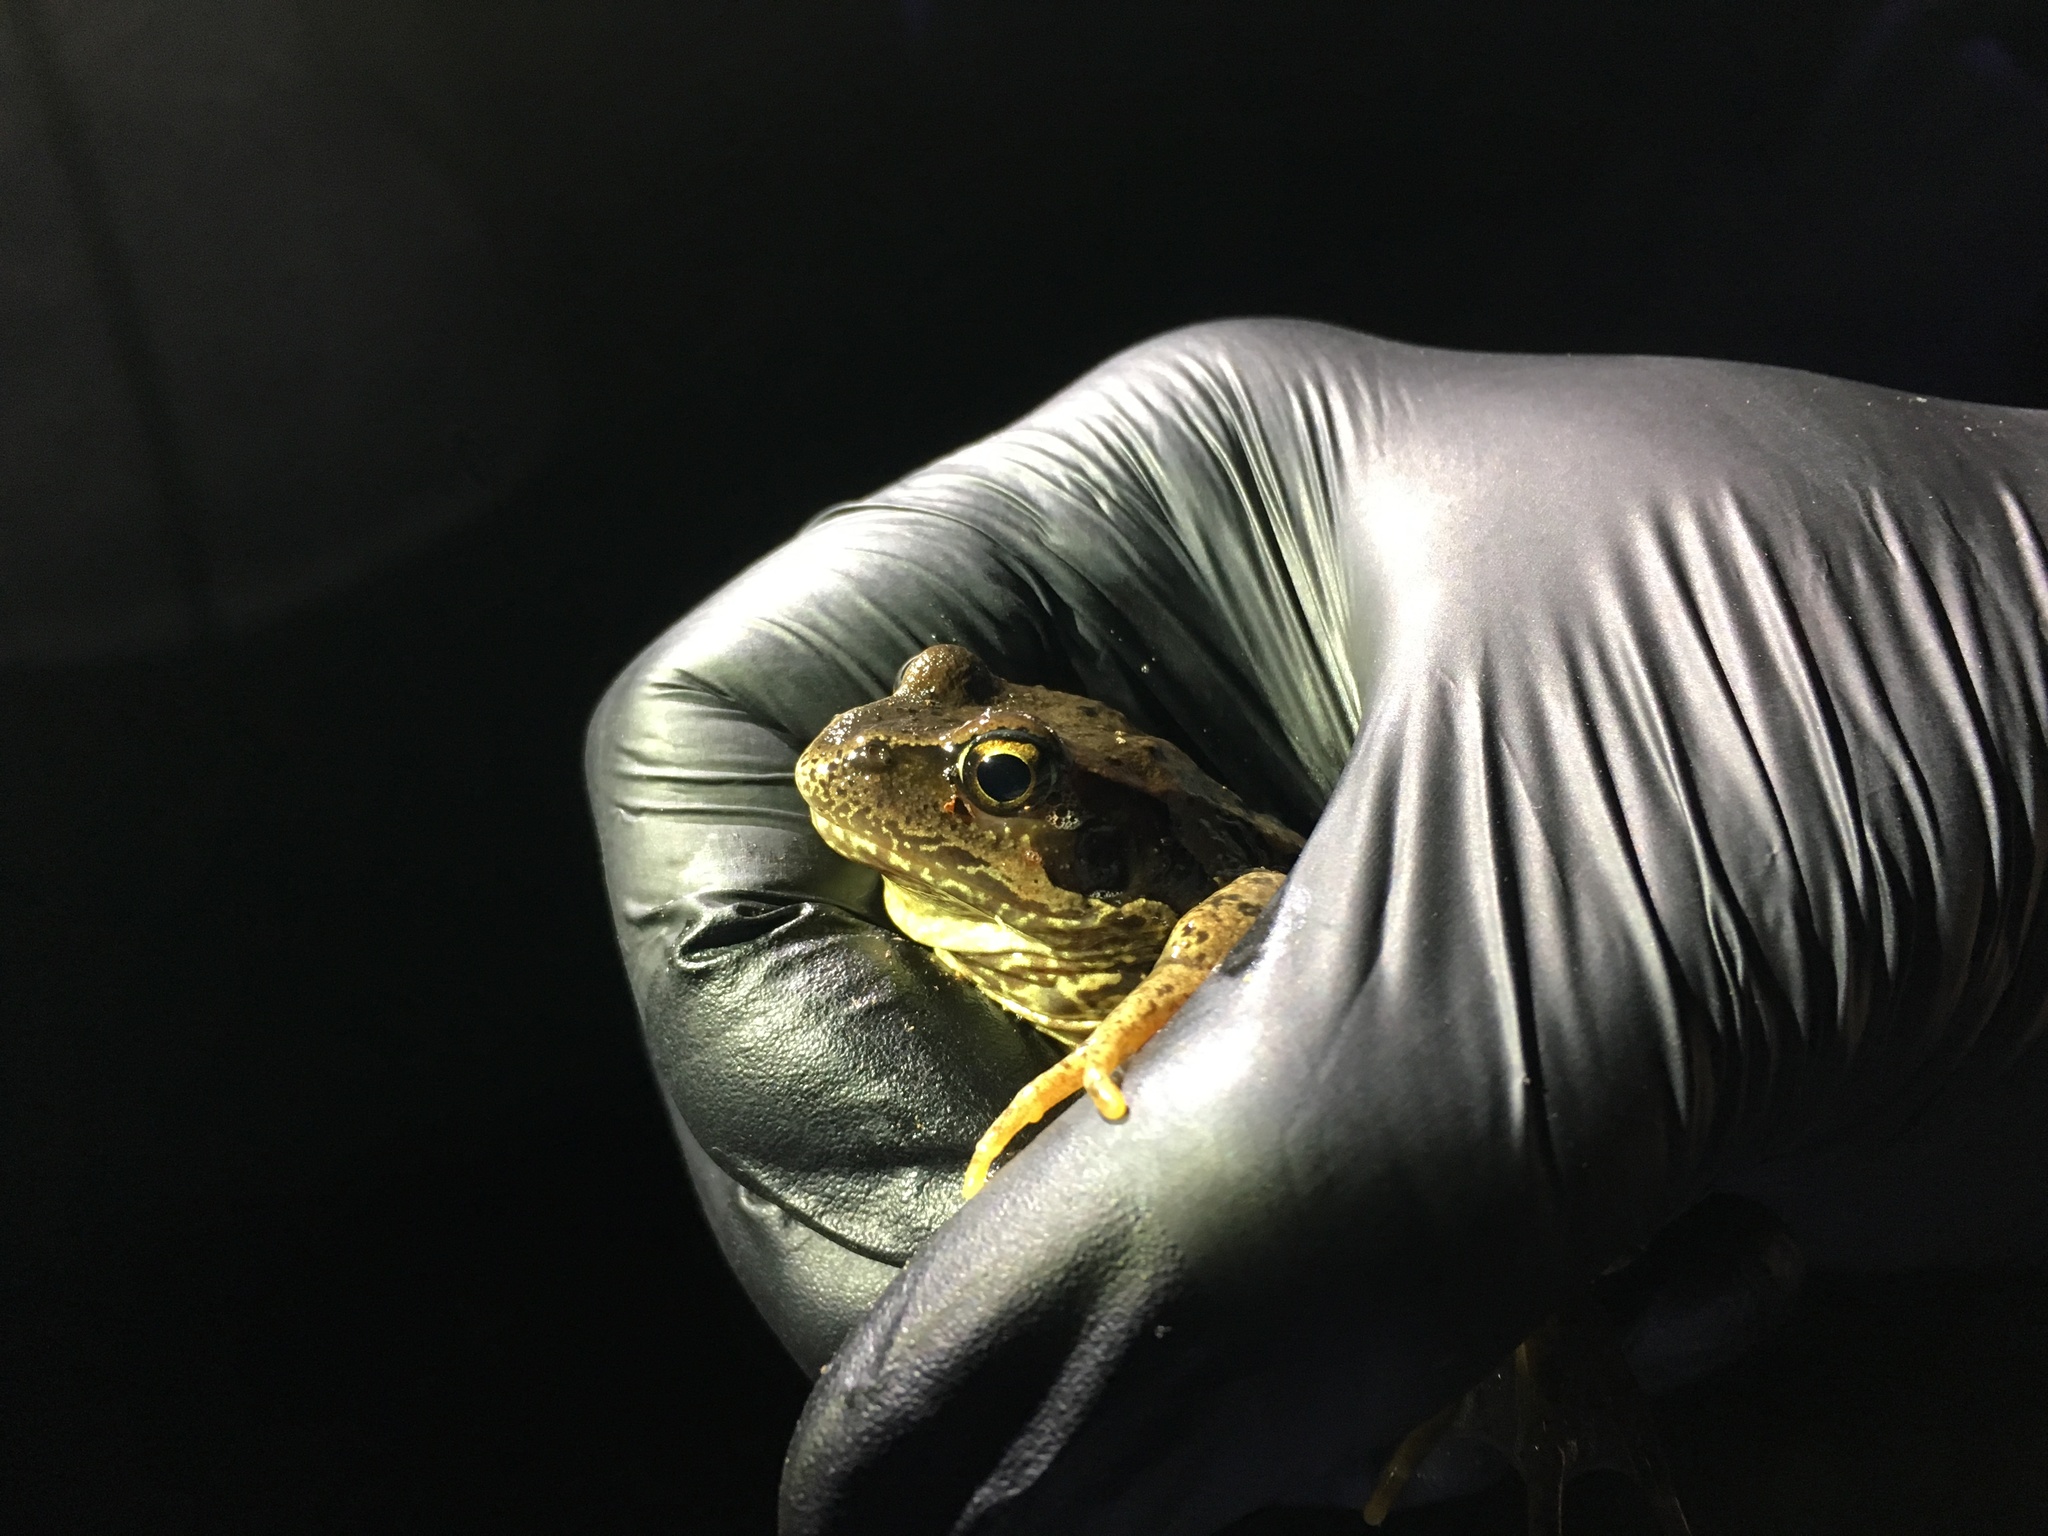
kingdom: Animalia
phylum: Chordata
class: Amphibia
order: Anura
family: Ranidae
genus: Rana
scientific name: Rana temporaria
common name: Common frog
